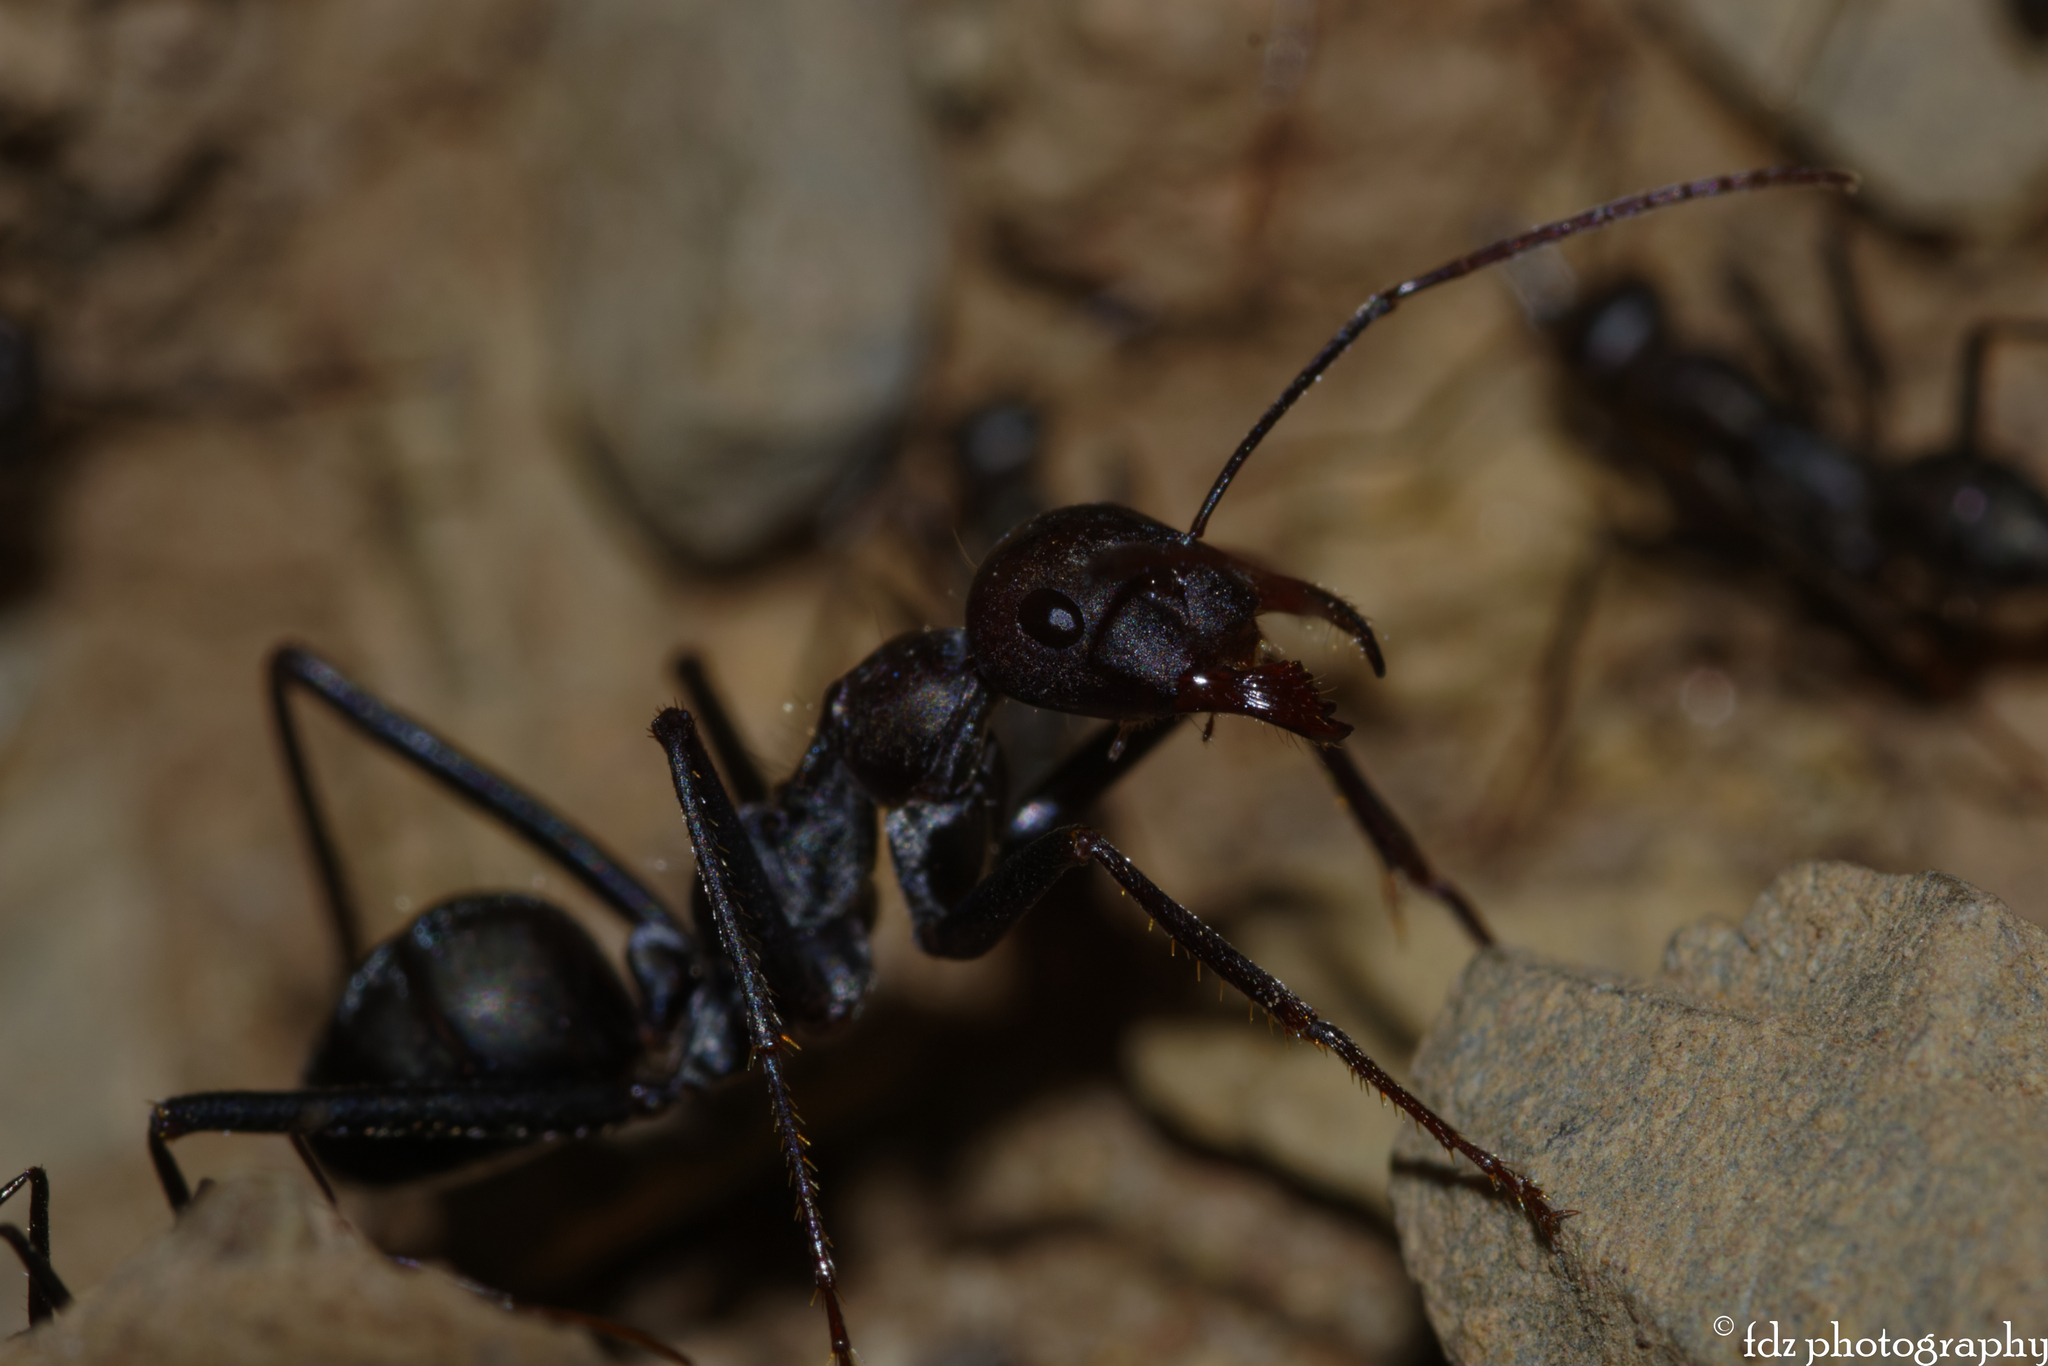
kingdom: Animalia
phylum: Arthropoda
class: Insecta
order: Hymenoptera
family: Formicidae
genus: Cataglyphis
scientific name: Cataglyphis hispanicus
